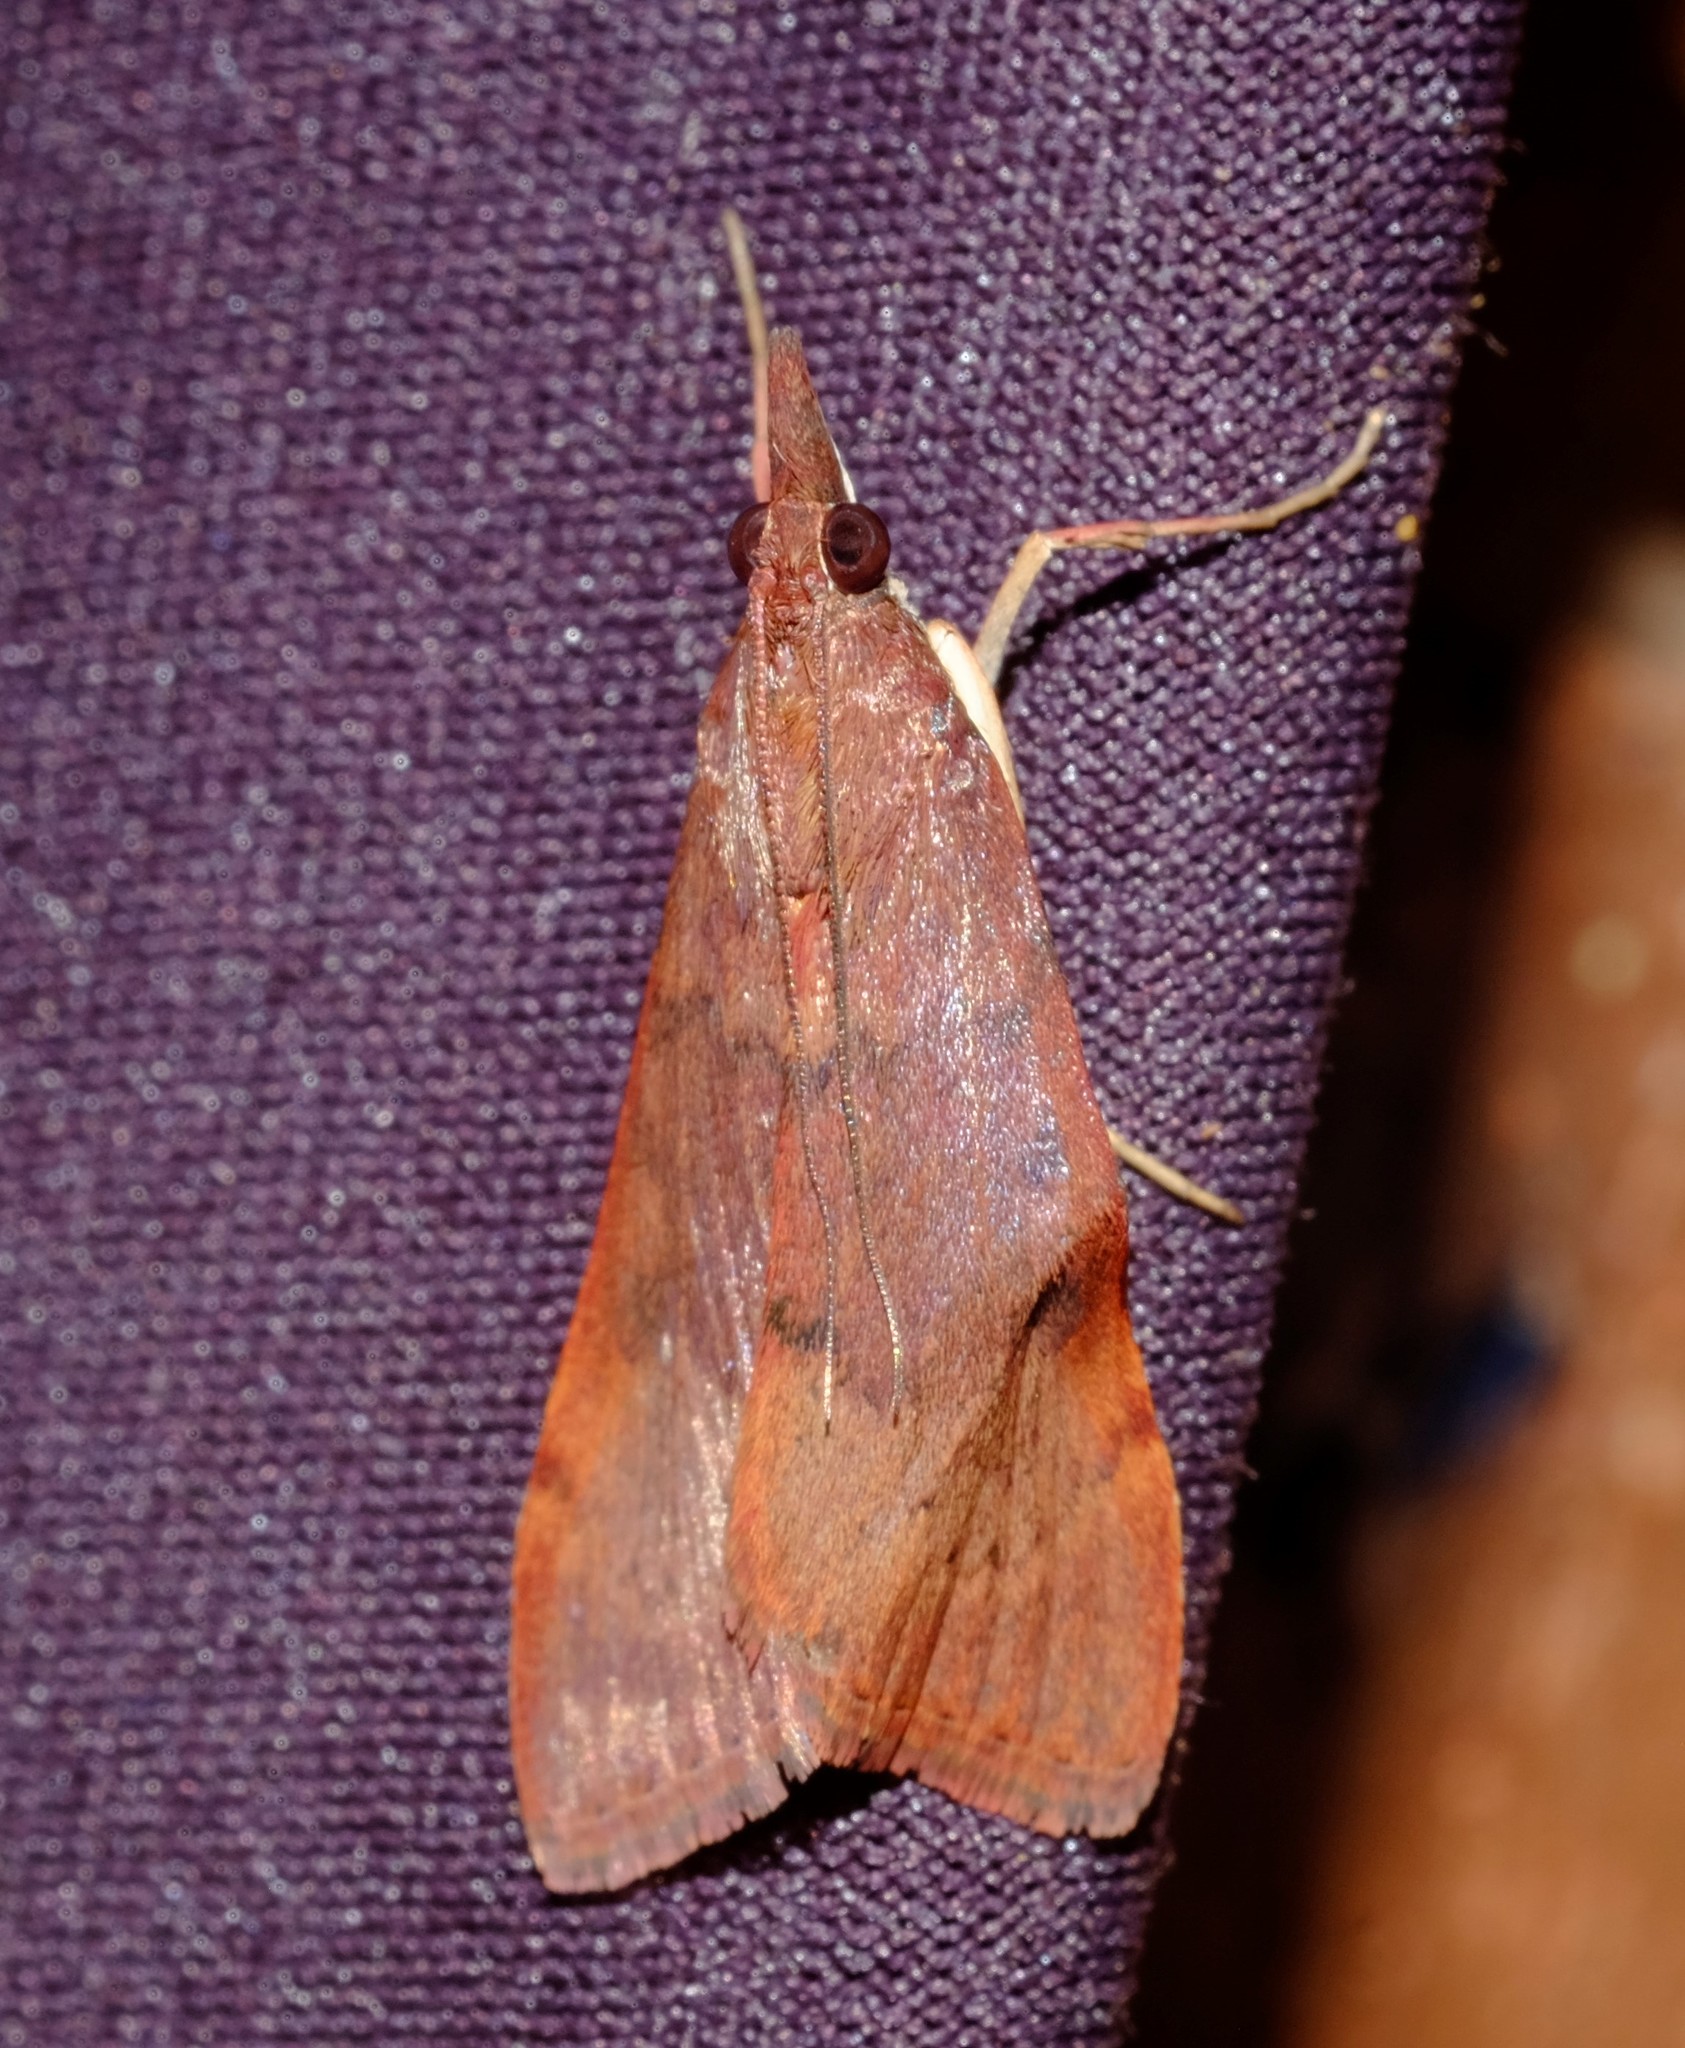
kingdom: Animalia
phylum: Arthropoda
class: Insecta
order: Lepidoptera
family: Crambidae
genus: Uresiphita
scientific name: Uresiphita ornithopteralis
